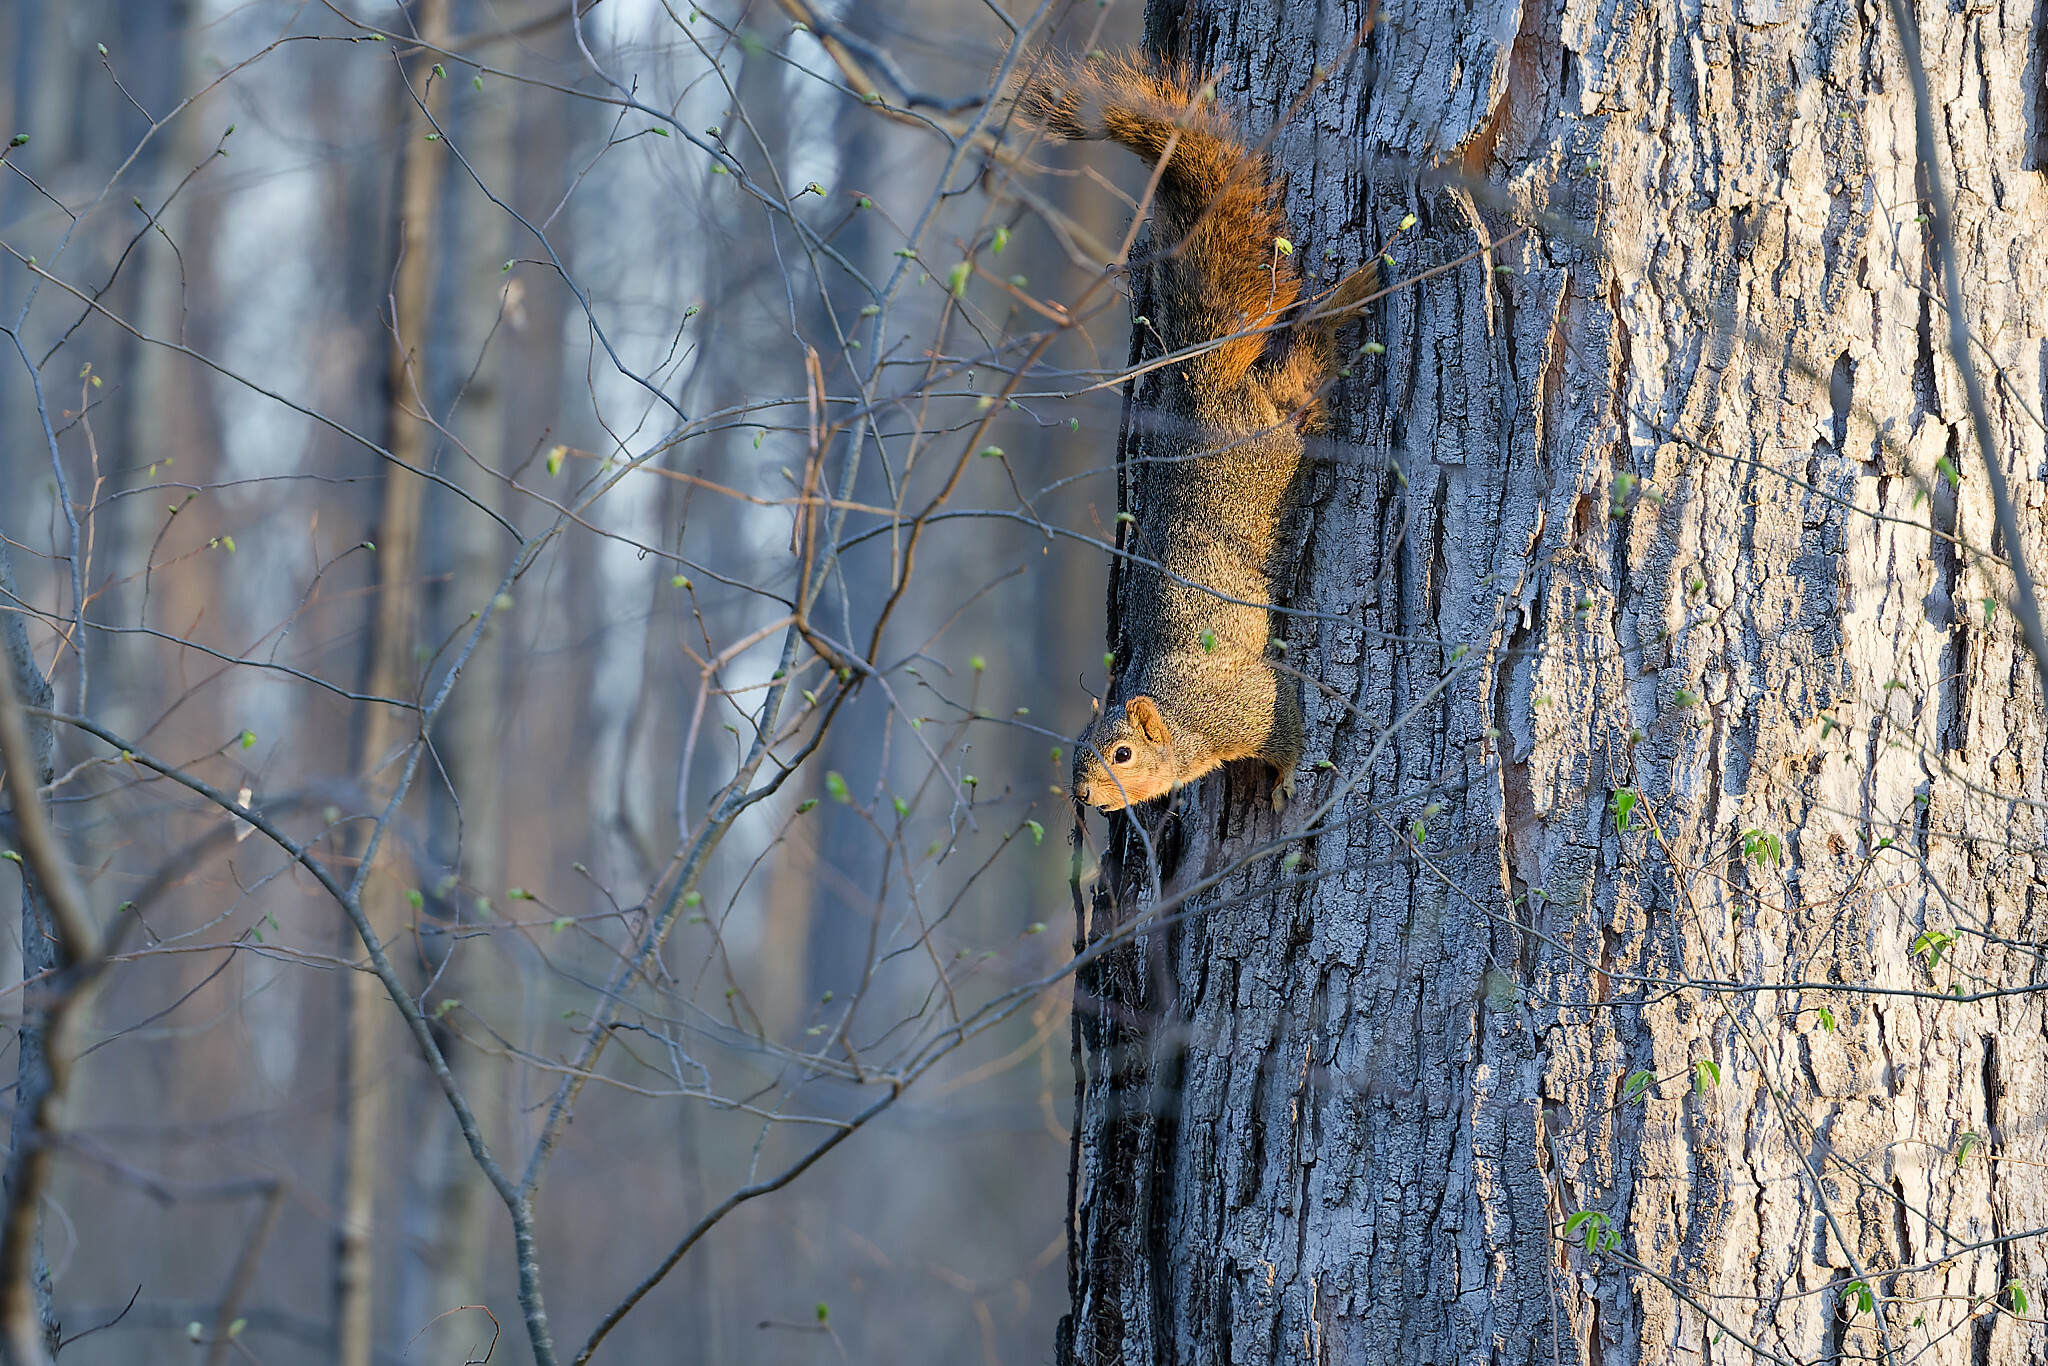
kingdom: Animalia
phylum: Chordata
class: Mammalia
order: Rodentia
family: Sciuridae
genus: Sciurus
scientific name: Sciurus niger
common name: Fox squirrel
